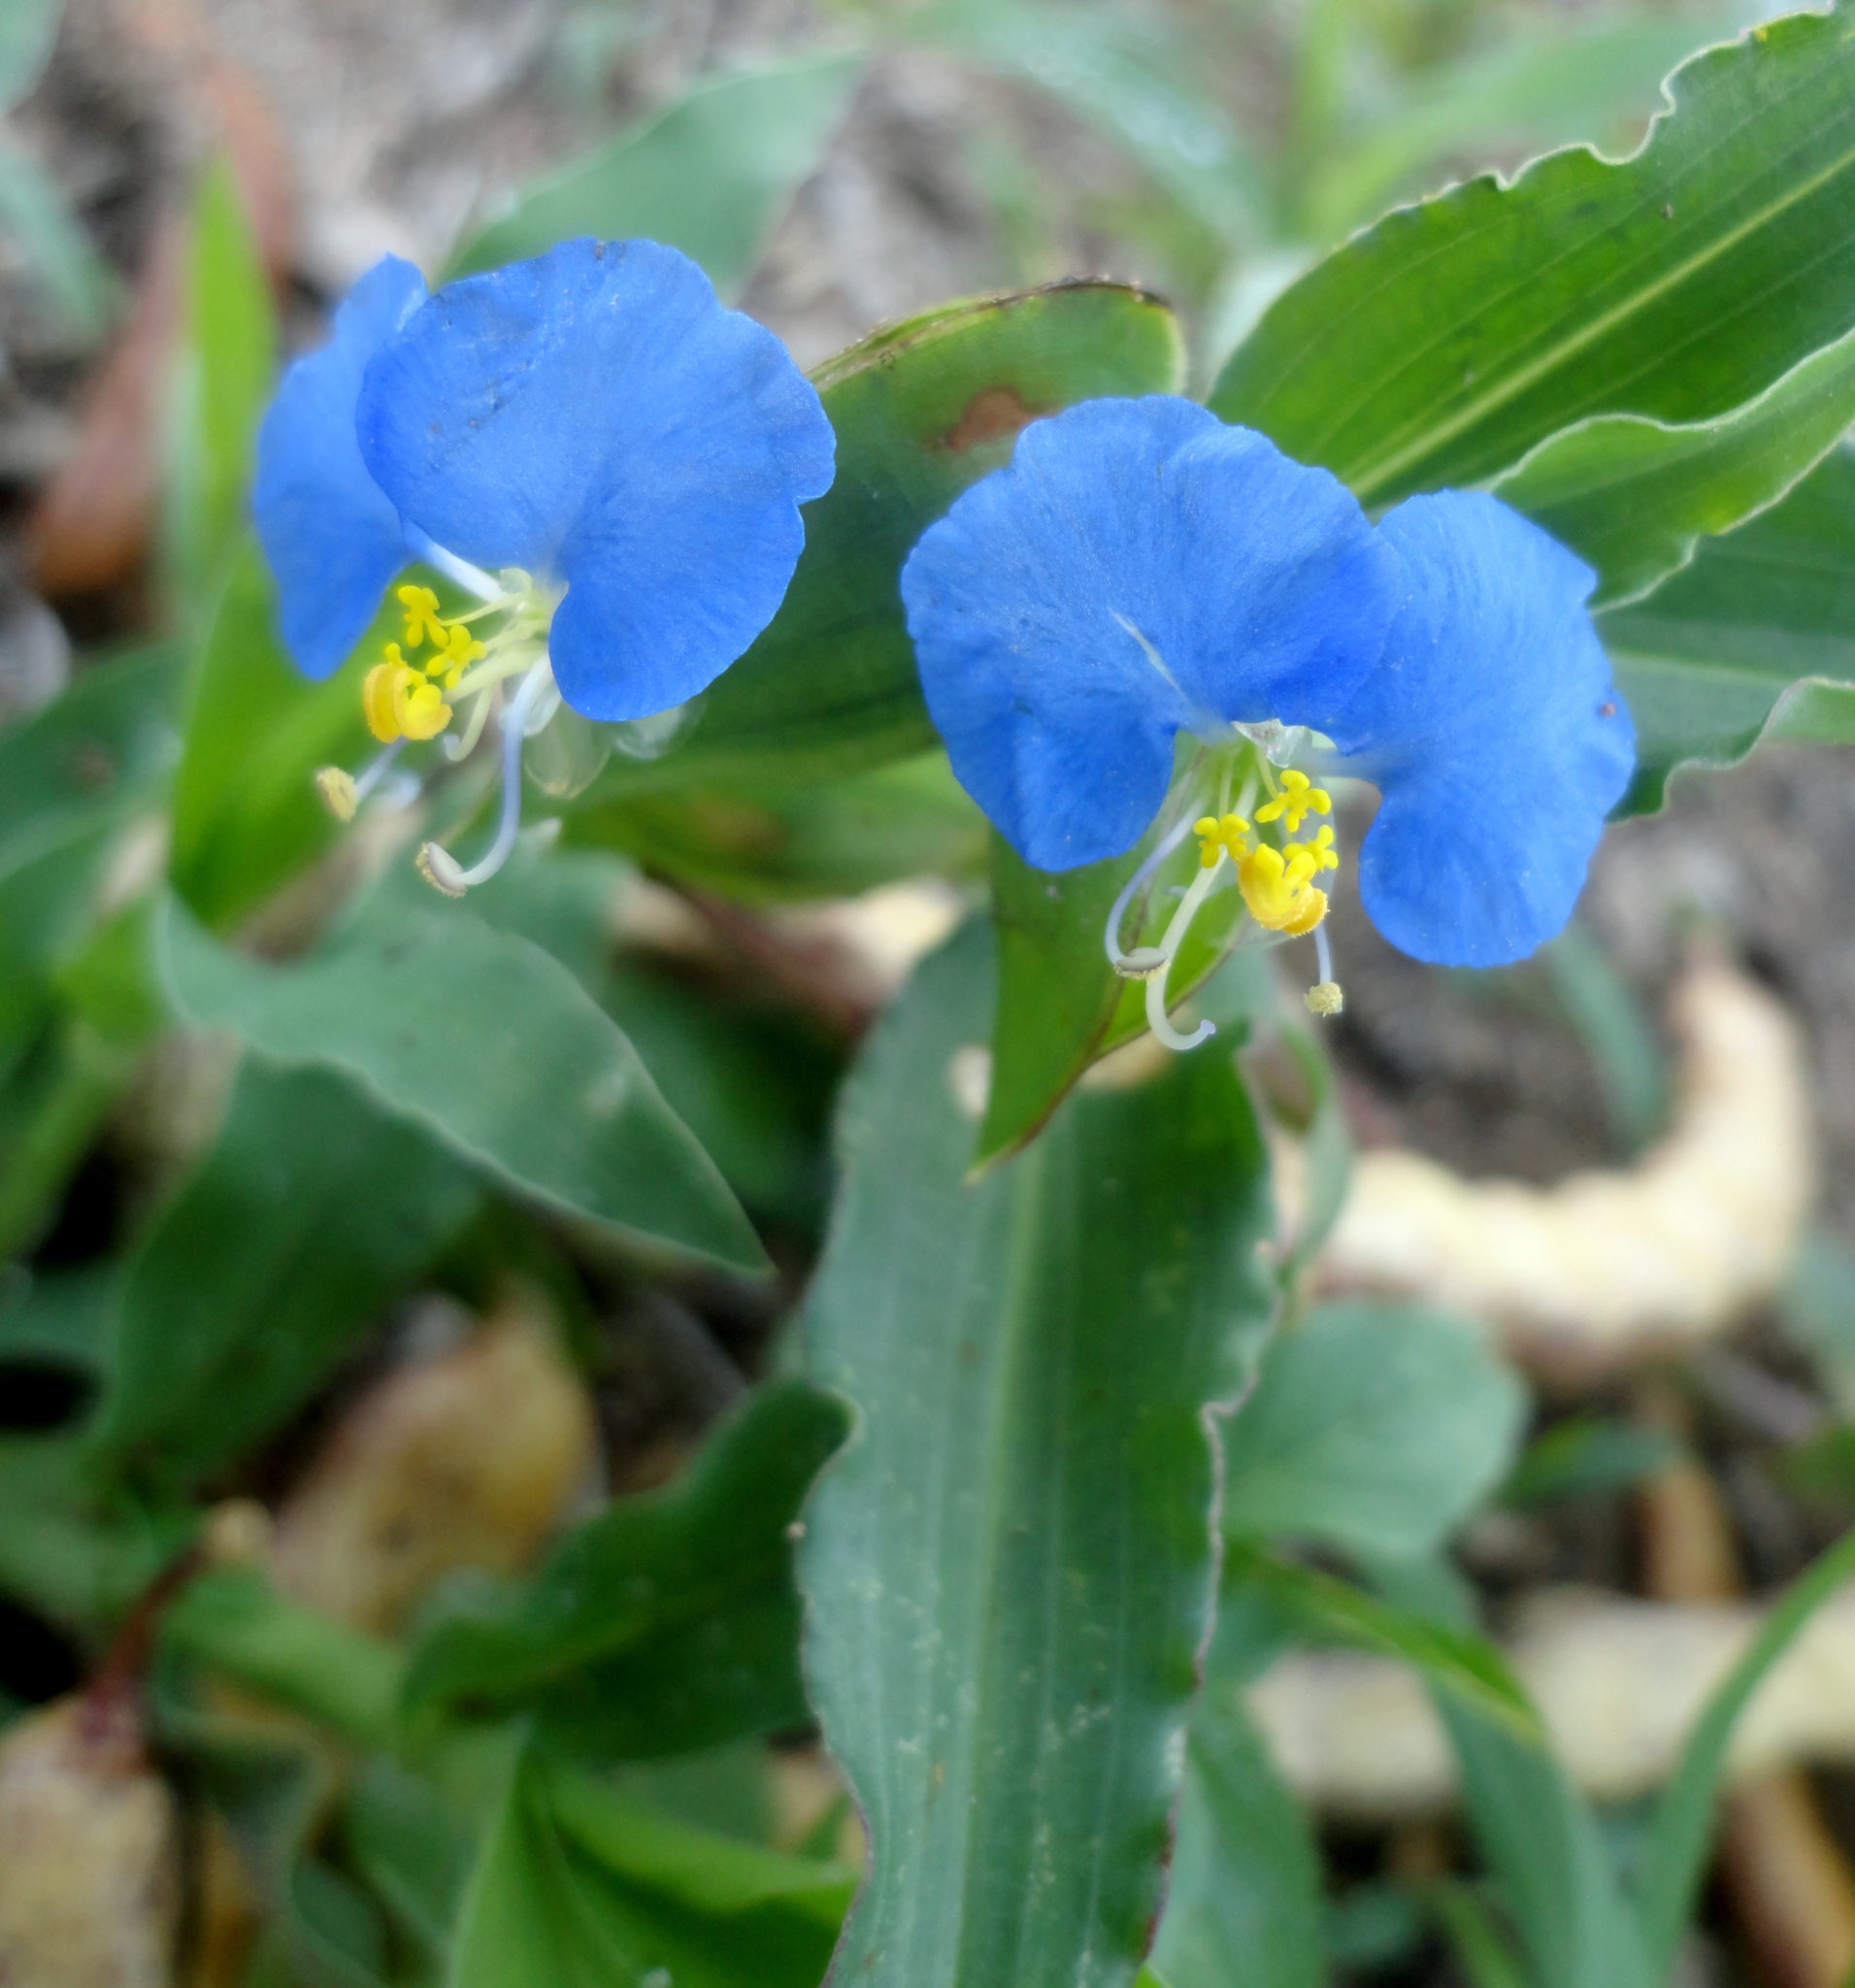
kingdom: Plantae
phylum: Tracheophyta
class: Liliopsida
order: Commelinales
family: Commelinaceae
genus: Commelina
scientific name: Commelina erecta
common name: Blousel blommetjie
